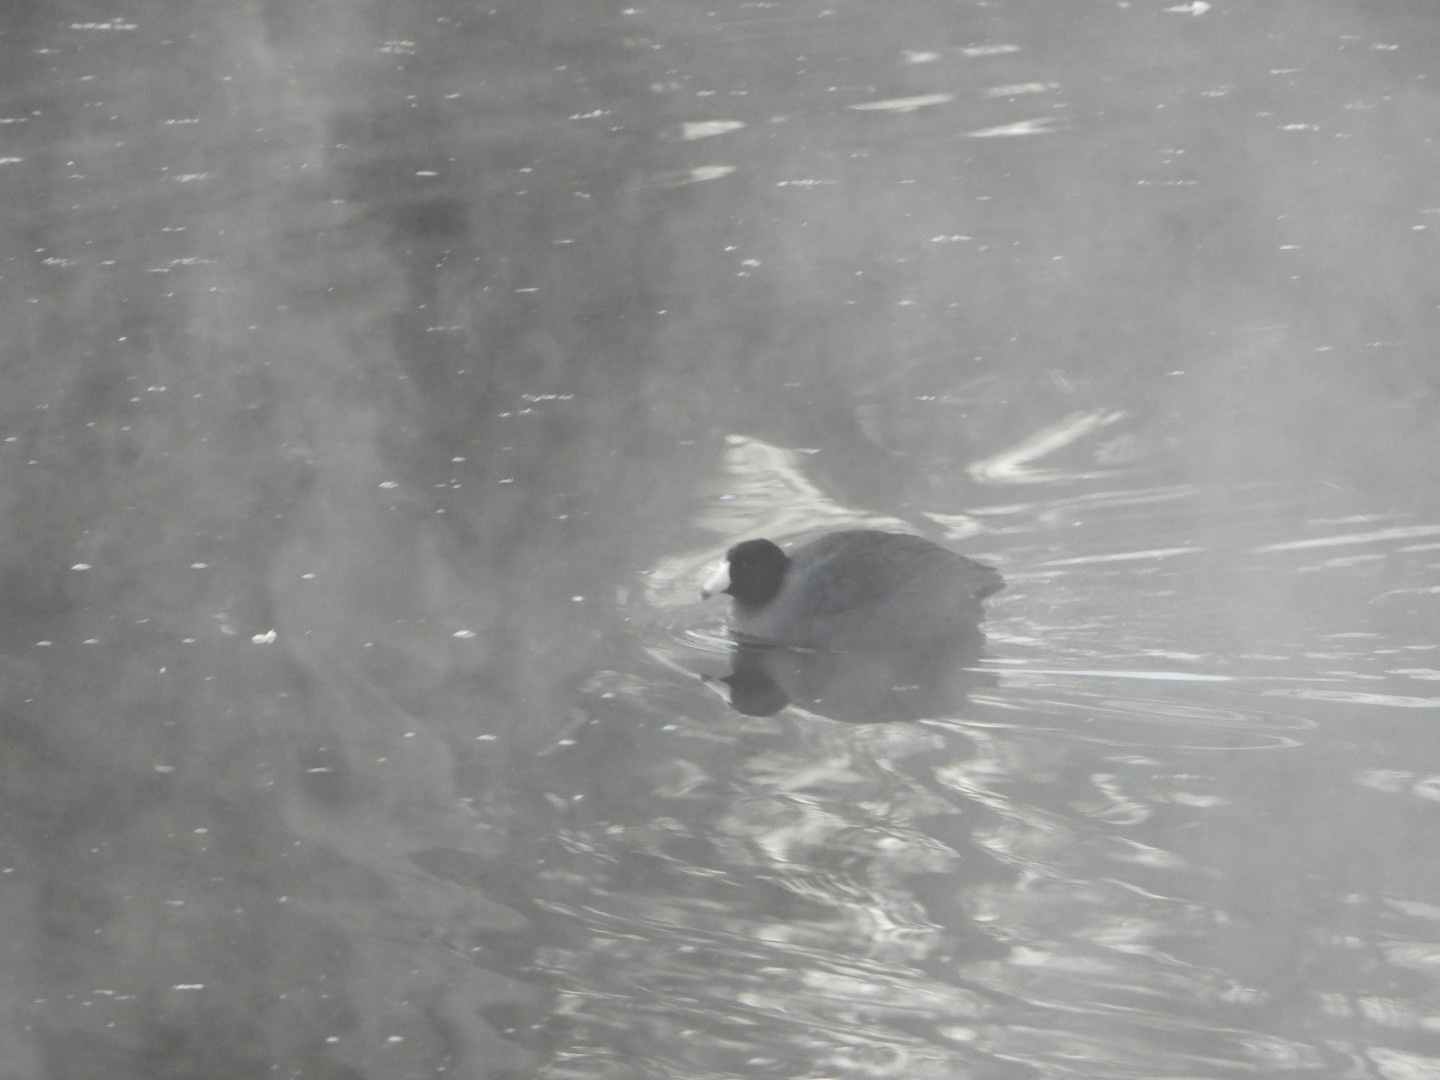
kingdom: Animalia
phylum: Chordata
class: Aves
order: Gruiformes
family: Rallidae
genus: Fulica
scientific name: Fulica americana
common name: American coot
